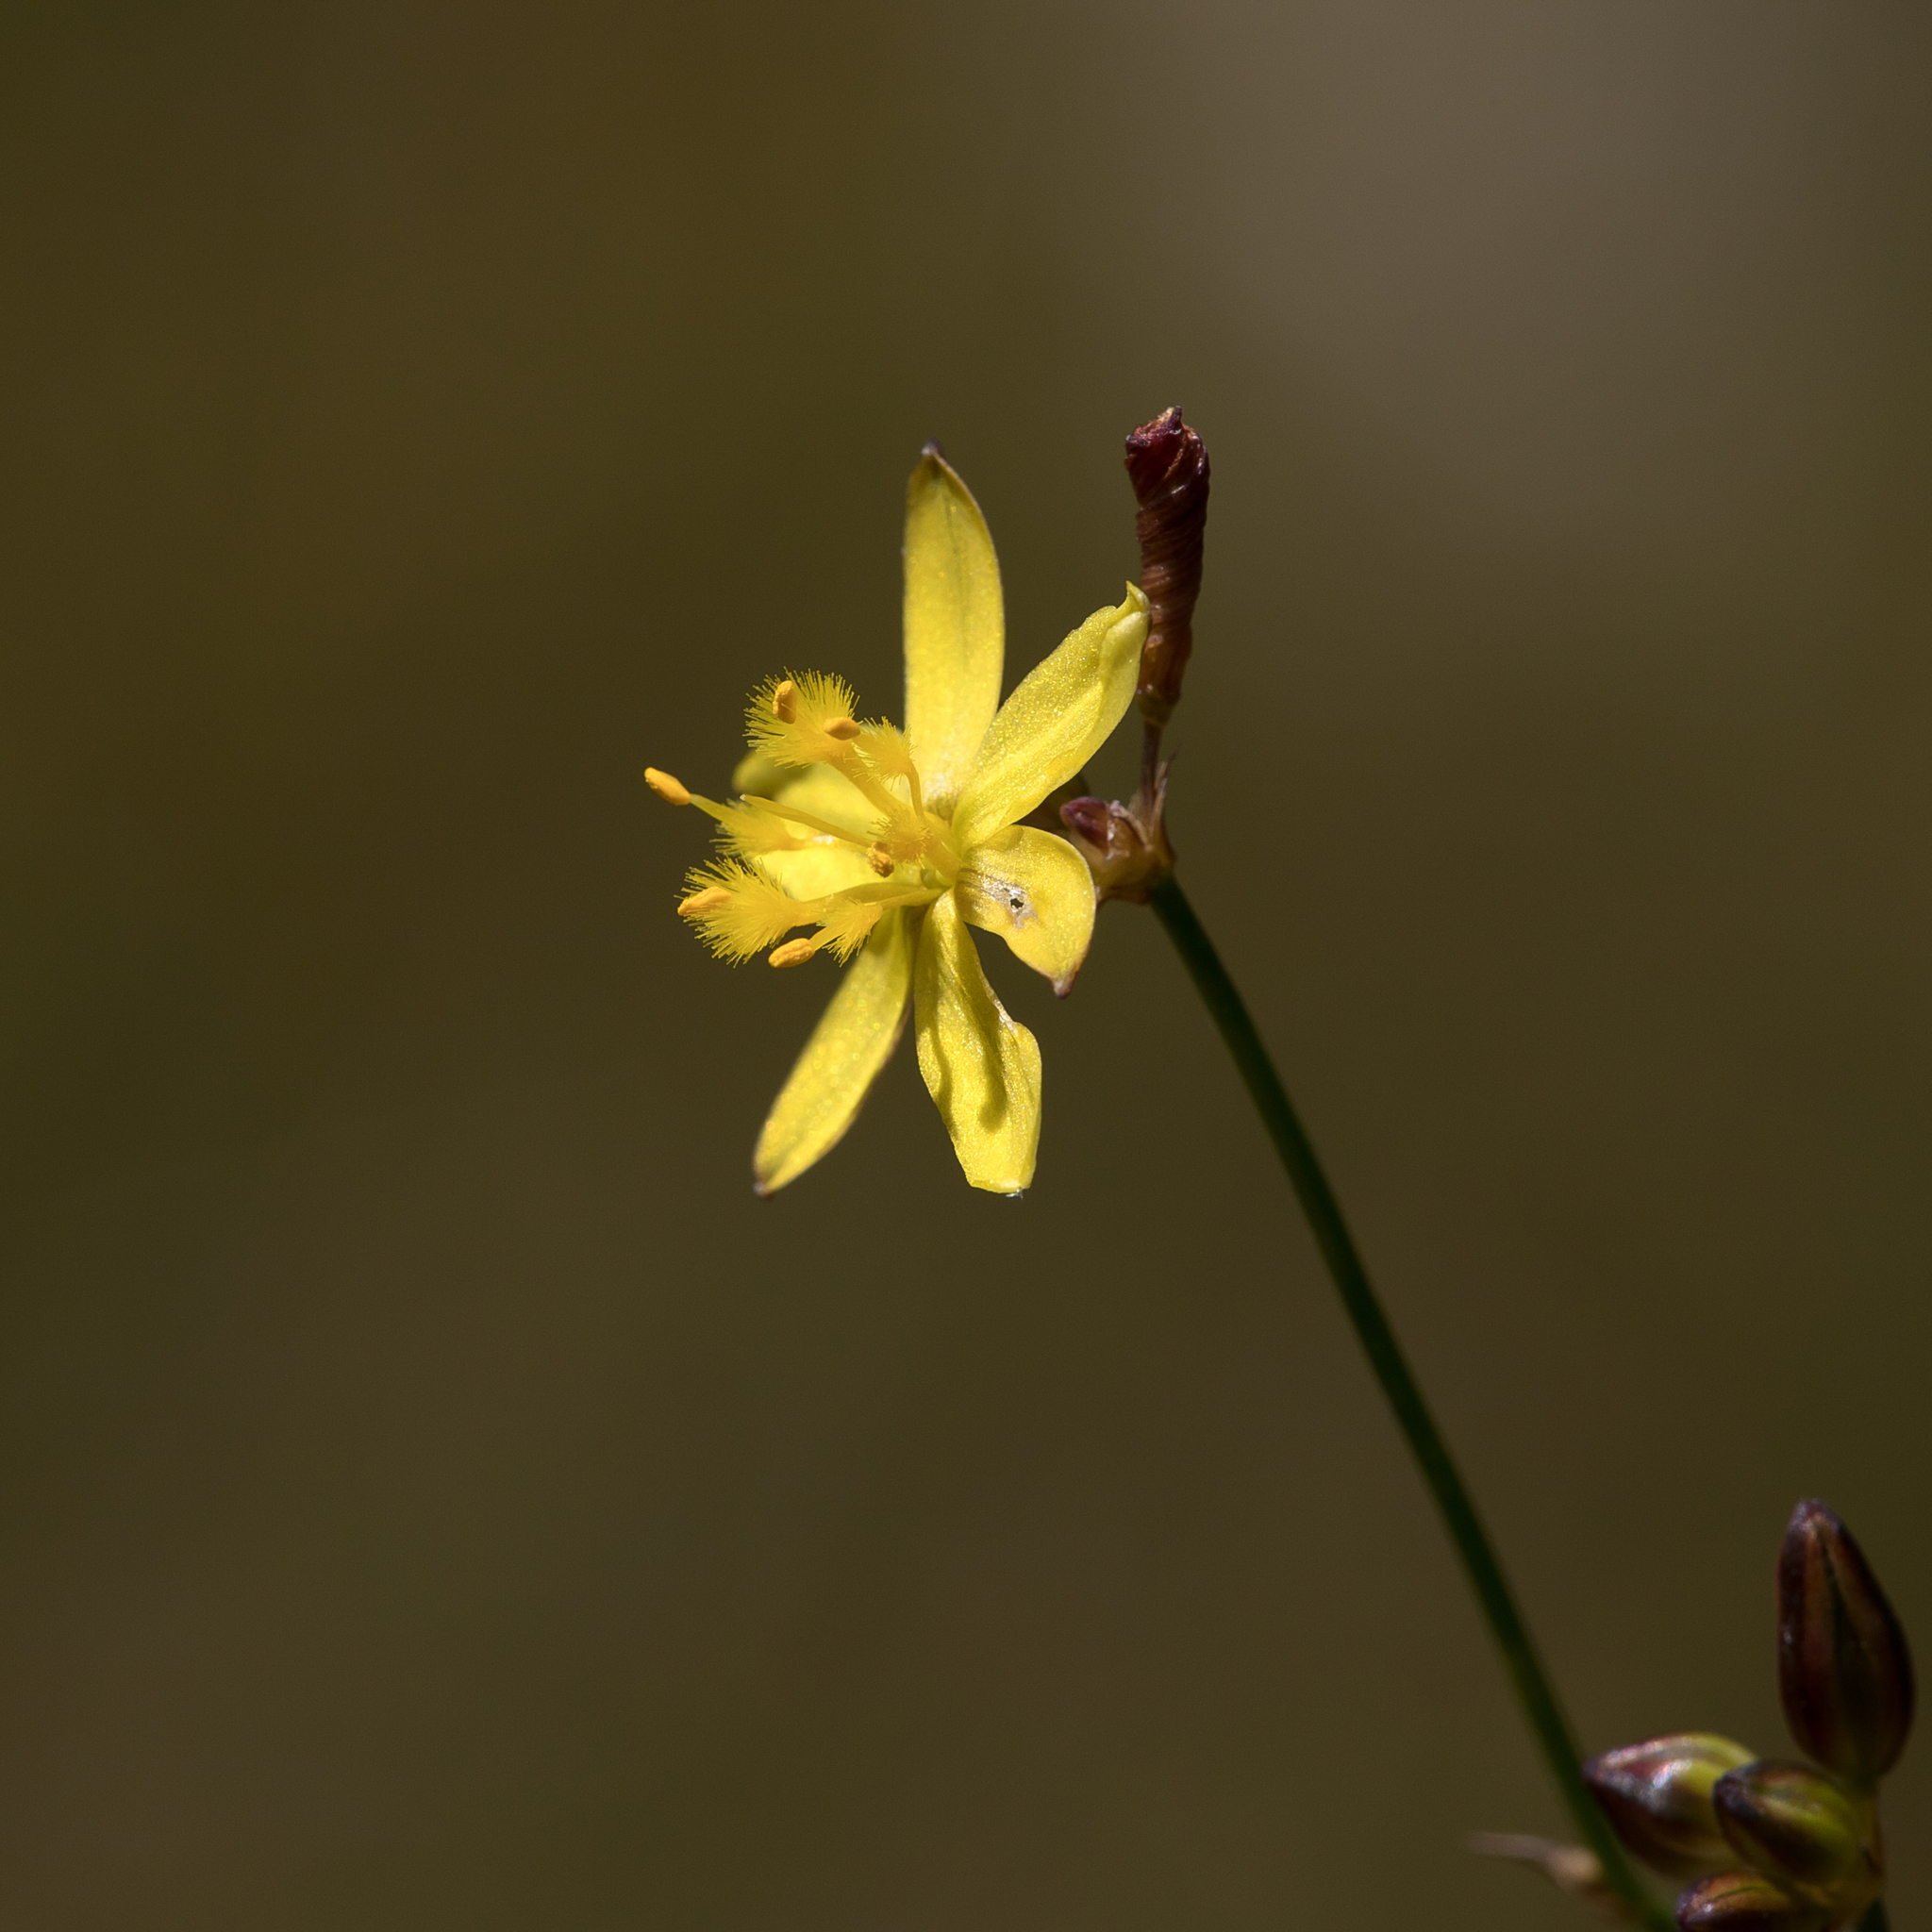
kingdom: Plantae
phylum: Tracheophyta
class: Liliopsida
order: Asparagales
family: Asphodelaceae
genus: Tricoryne
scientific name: Tricoryne elatior
